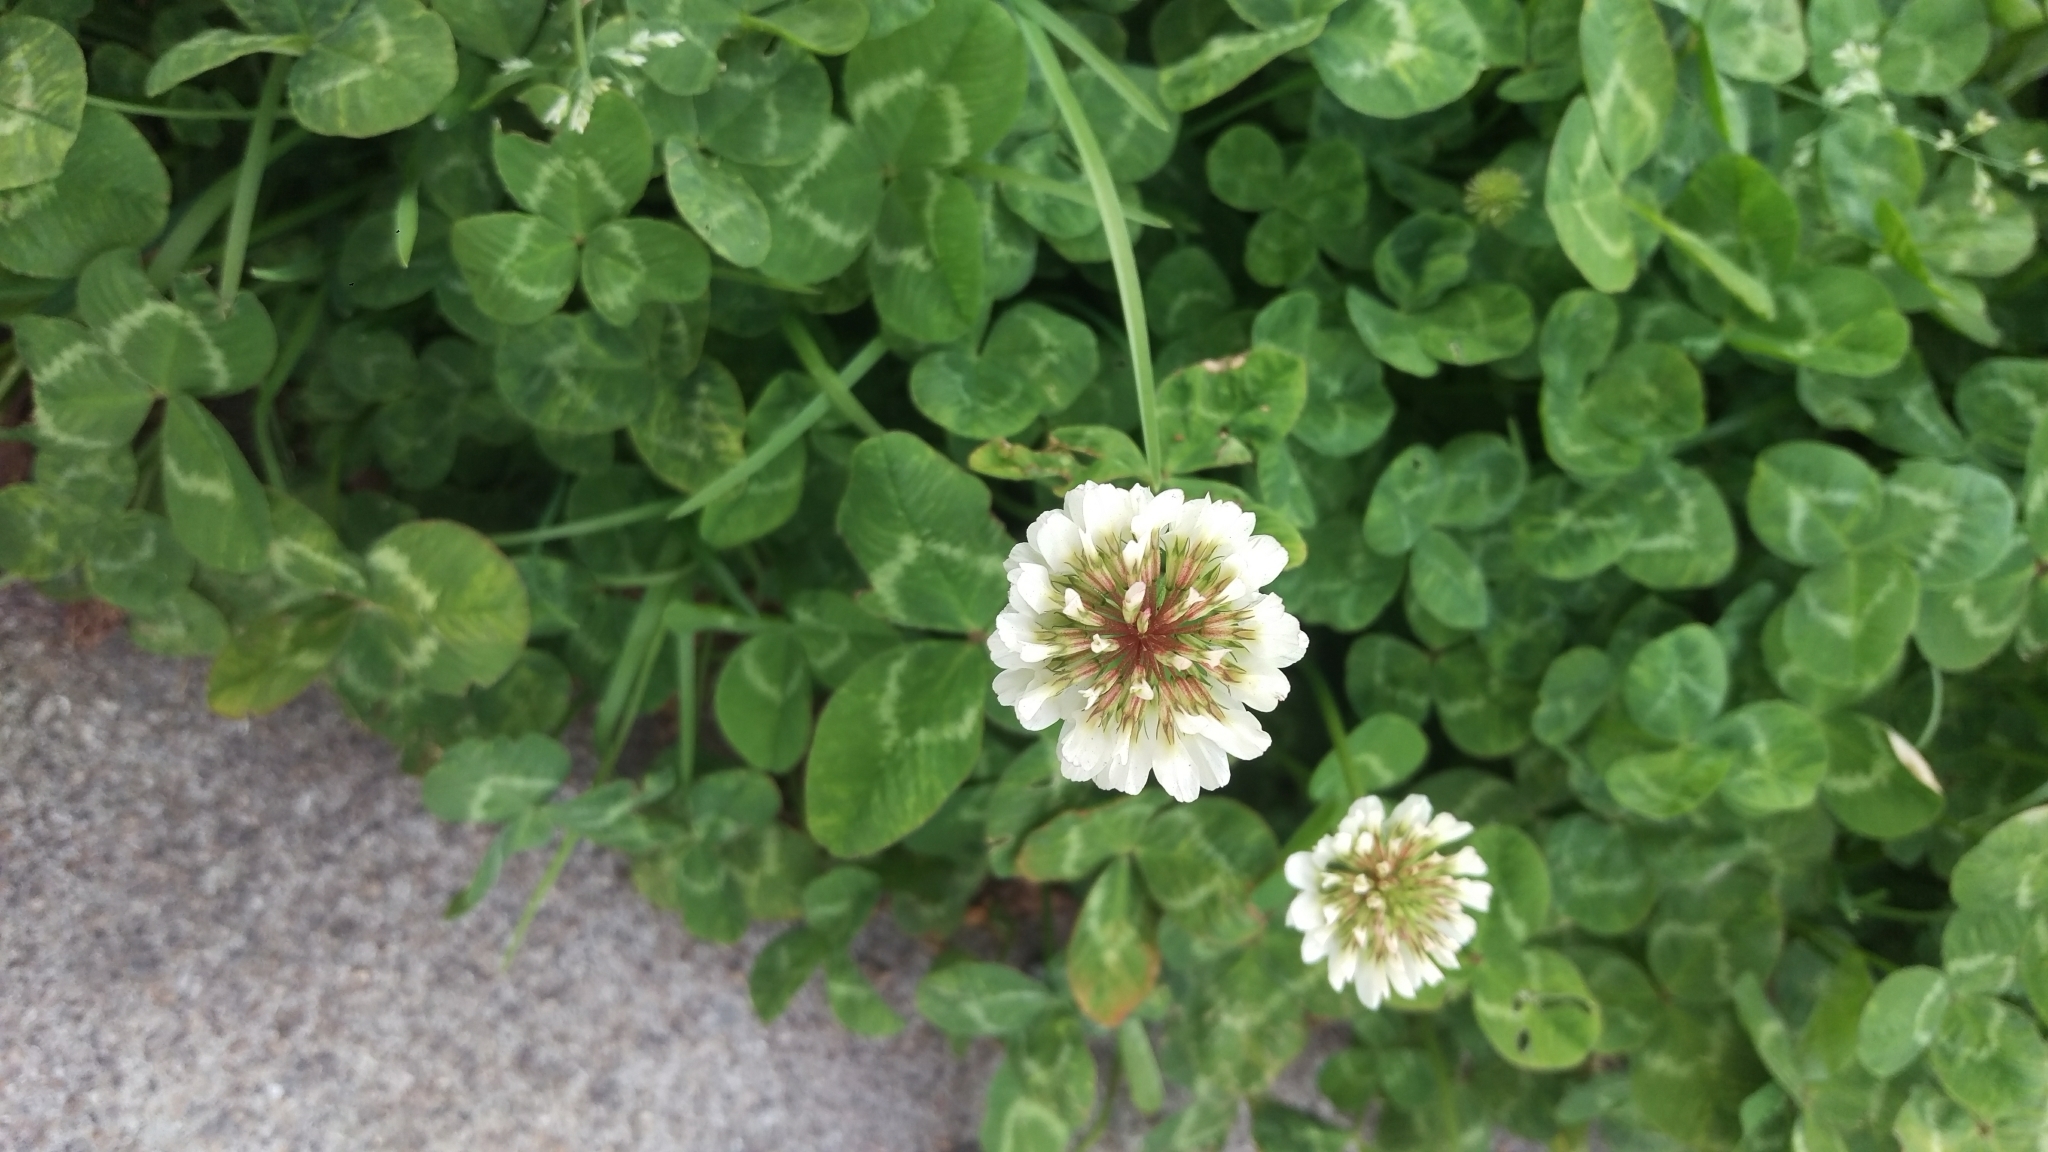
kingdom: Plantae
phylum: Tracheophyta
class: Magnoliopsida
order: Fabales
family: Fabaceae
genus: Trifolium
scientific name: Trifolium repens
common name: White clover
